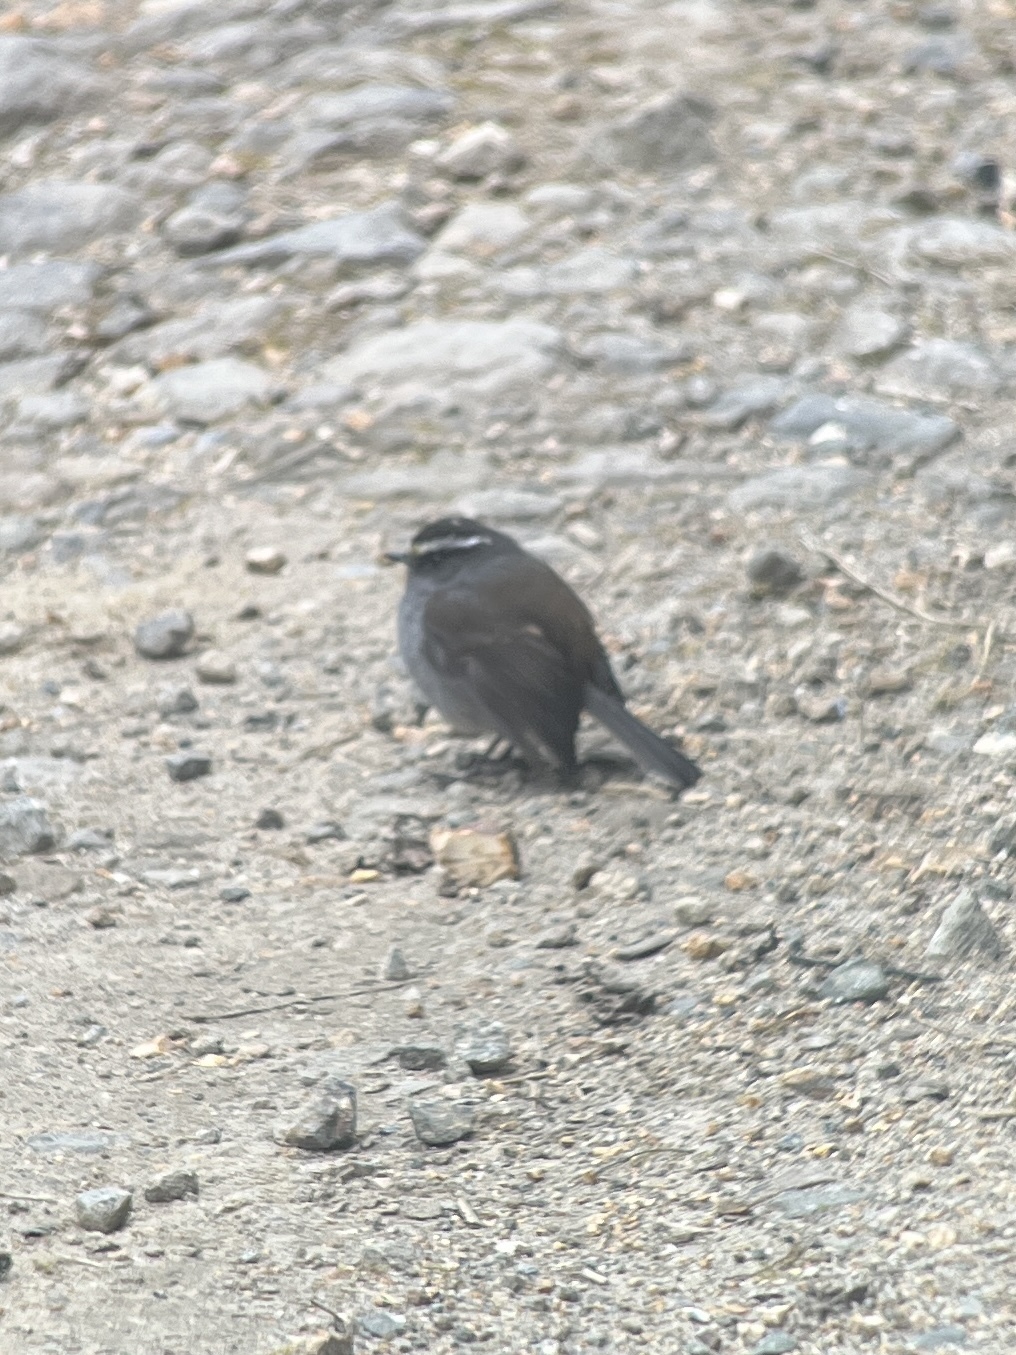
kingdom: Animalia
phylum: Chordata
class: Aves
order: Passeriformes
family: Tyrannidae
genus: Ochthoeca
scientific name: Ochthoeca frontalis
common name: Crowned chat-tyrant
